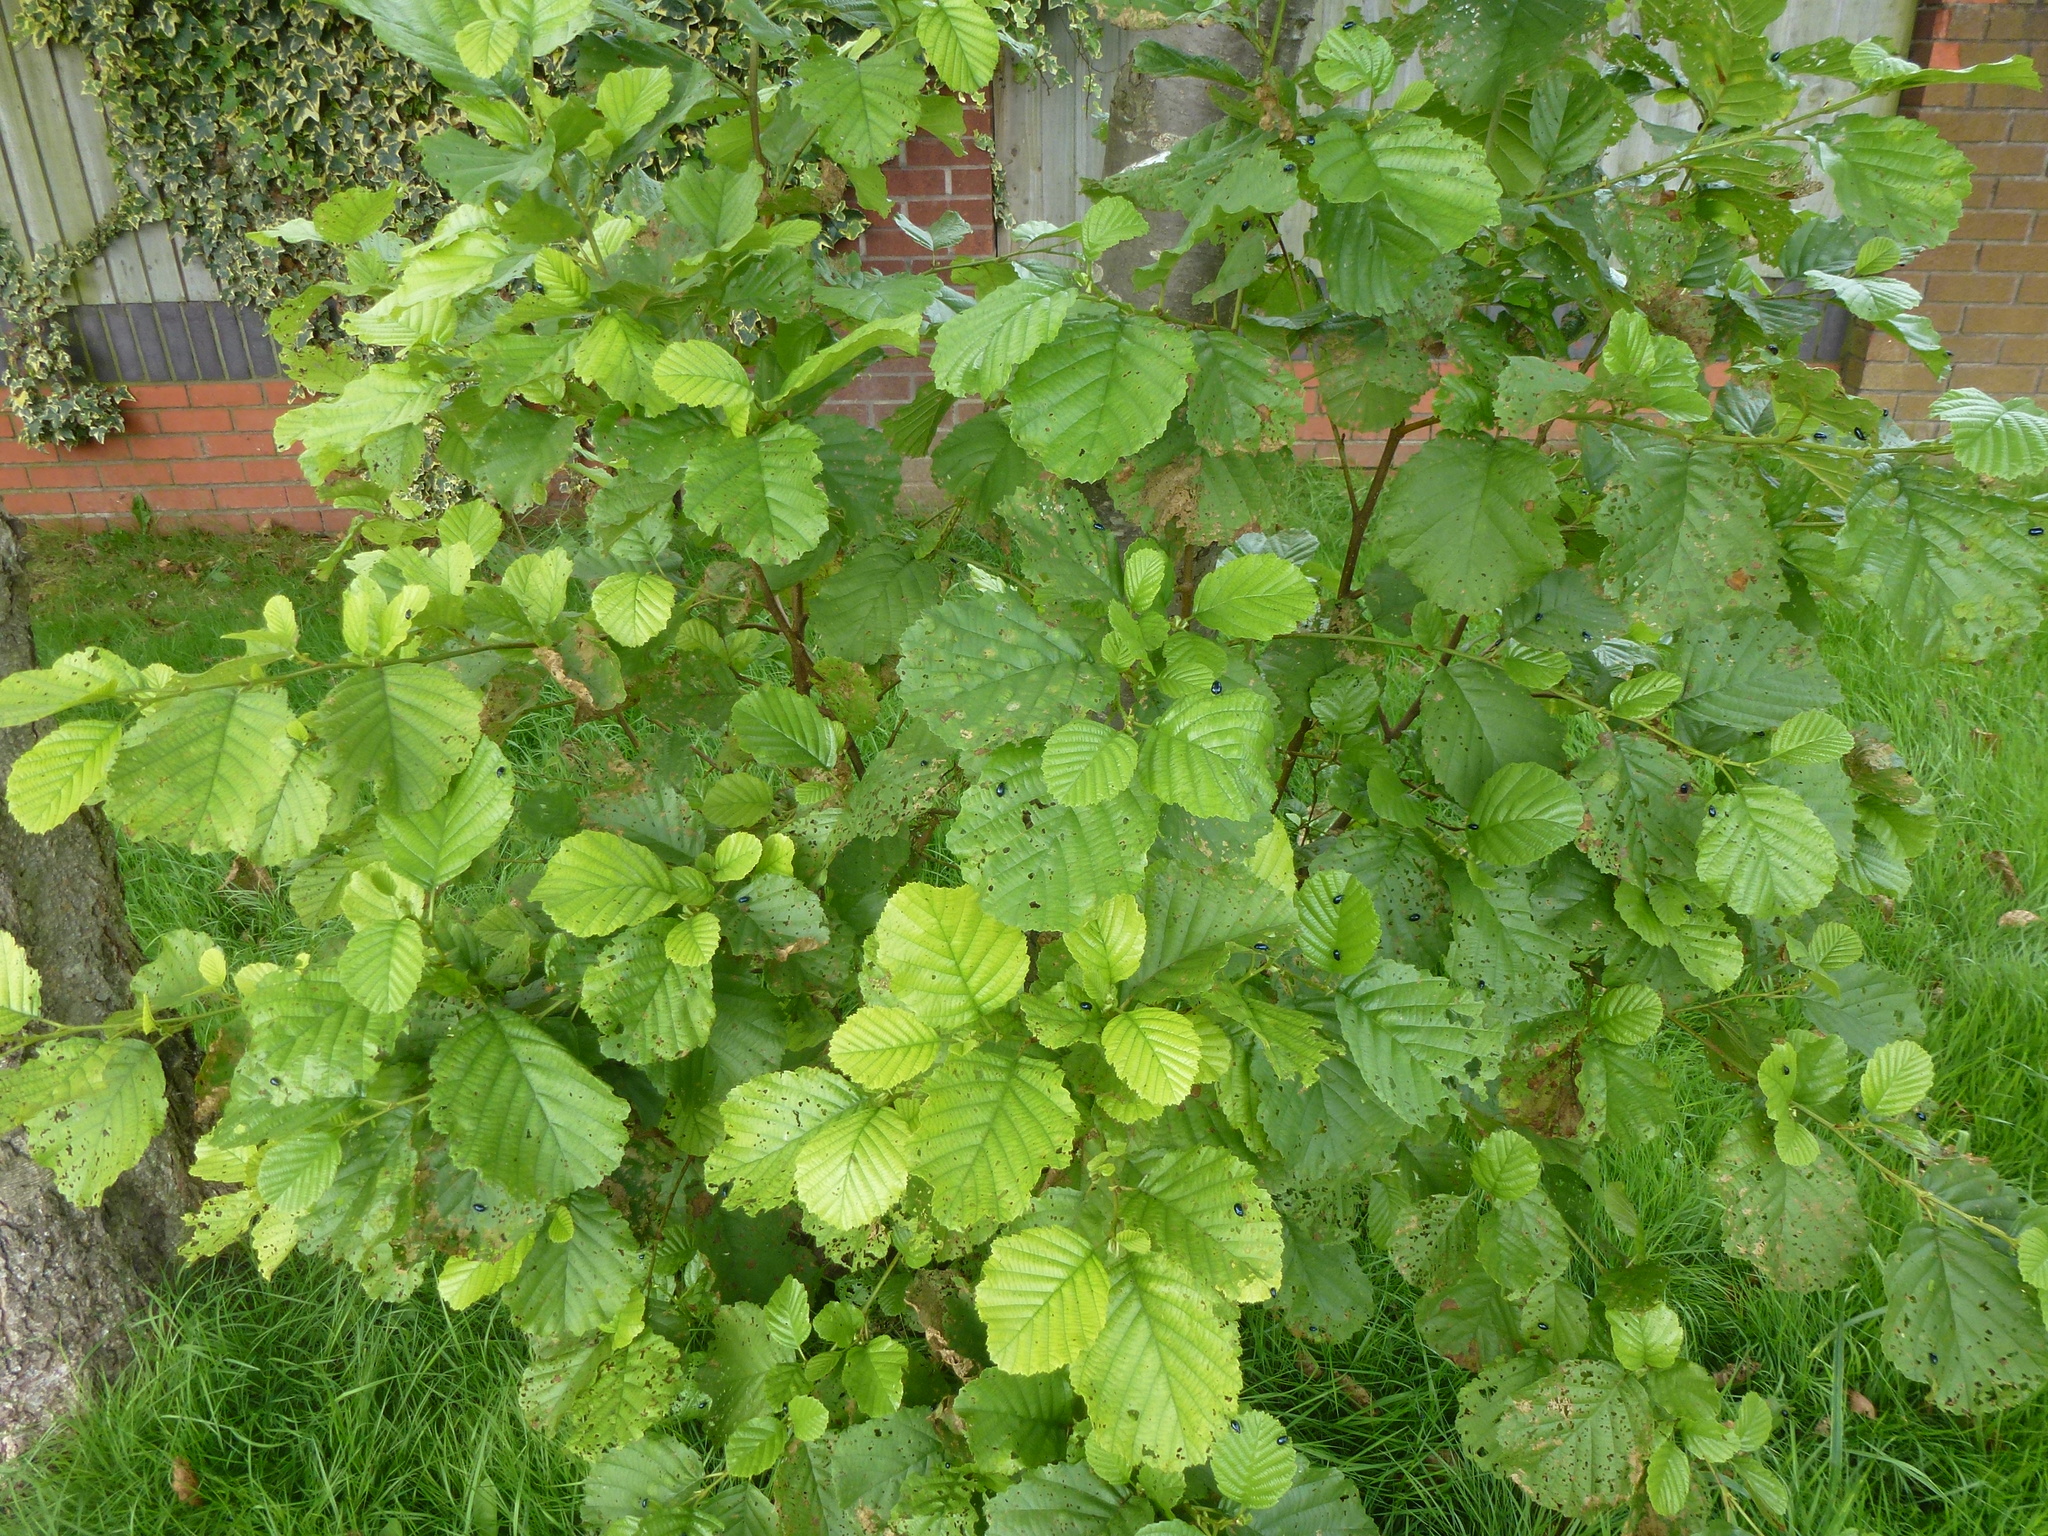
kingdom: Plantae
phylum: Tracheophyta
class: Magnoliopsida
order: Fagales
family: Betulaceae
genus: Alnus
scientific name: Alnus glutinosa
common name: Black alder
